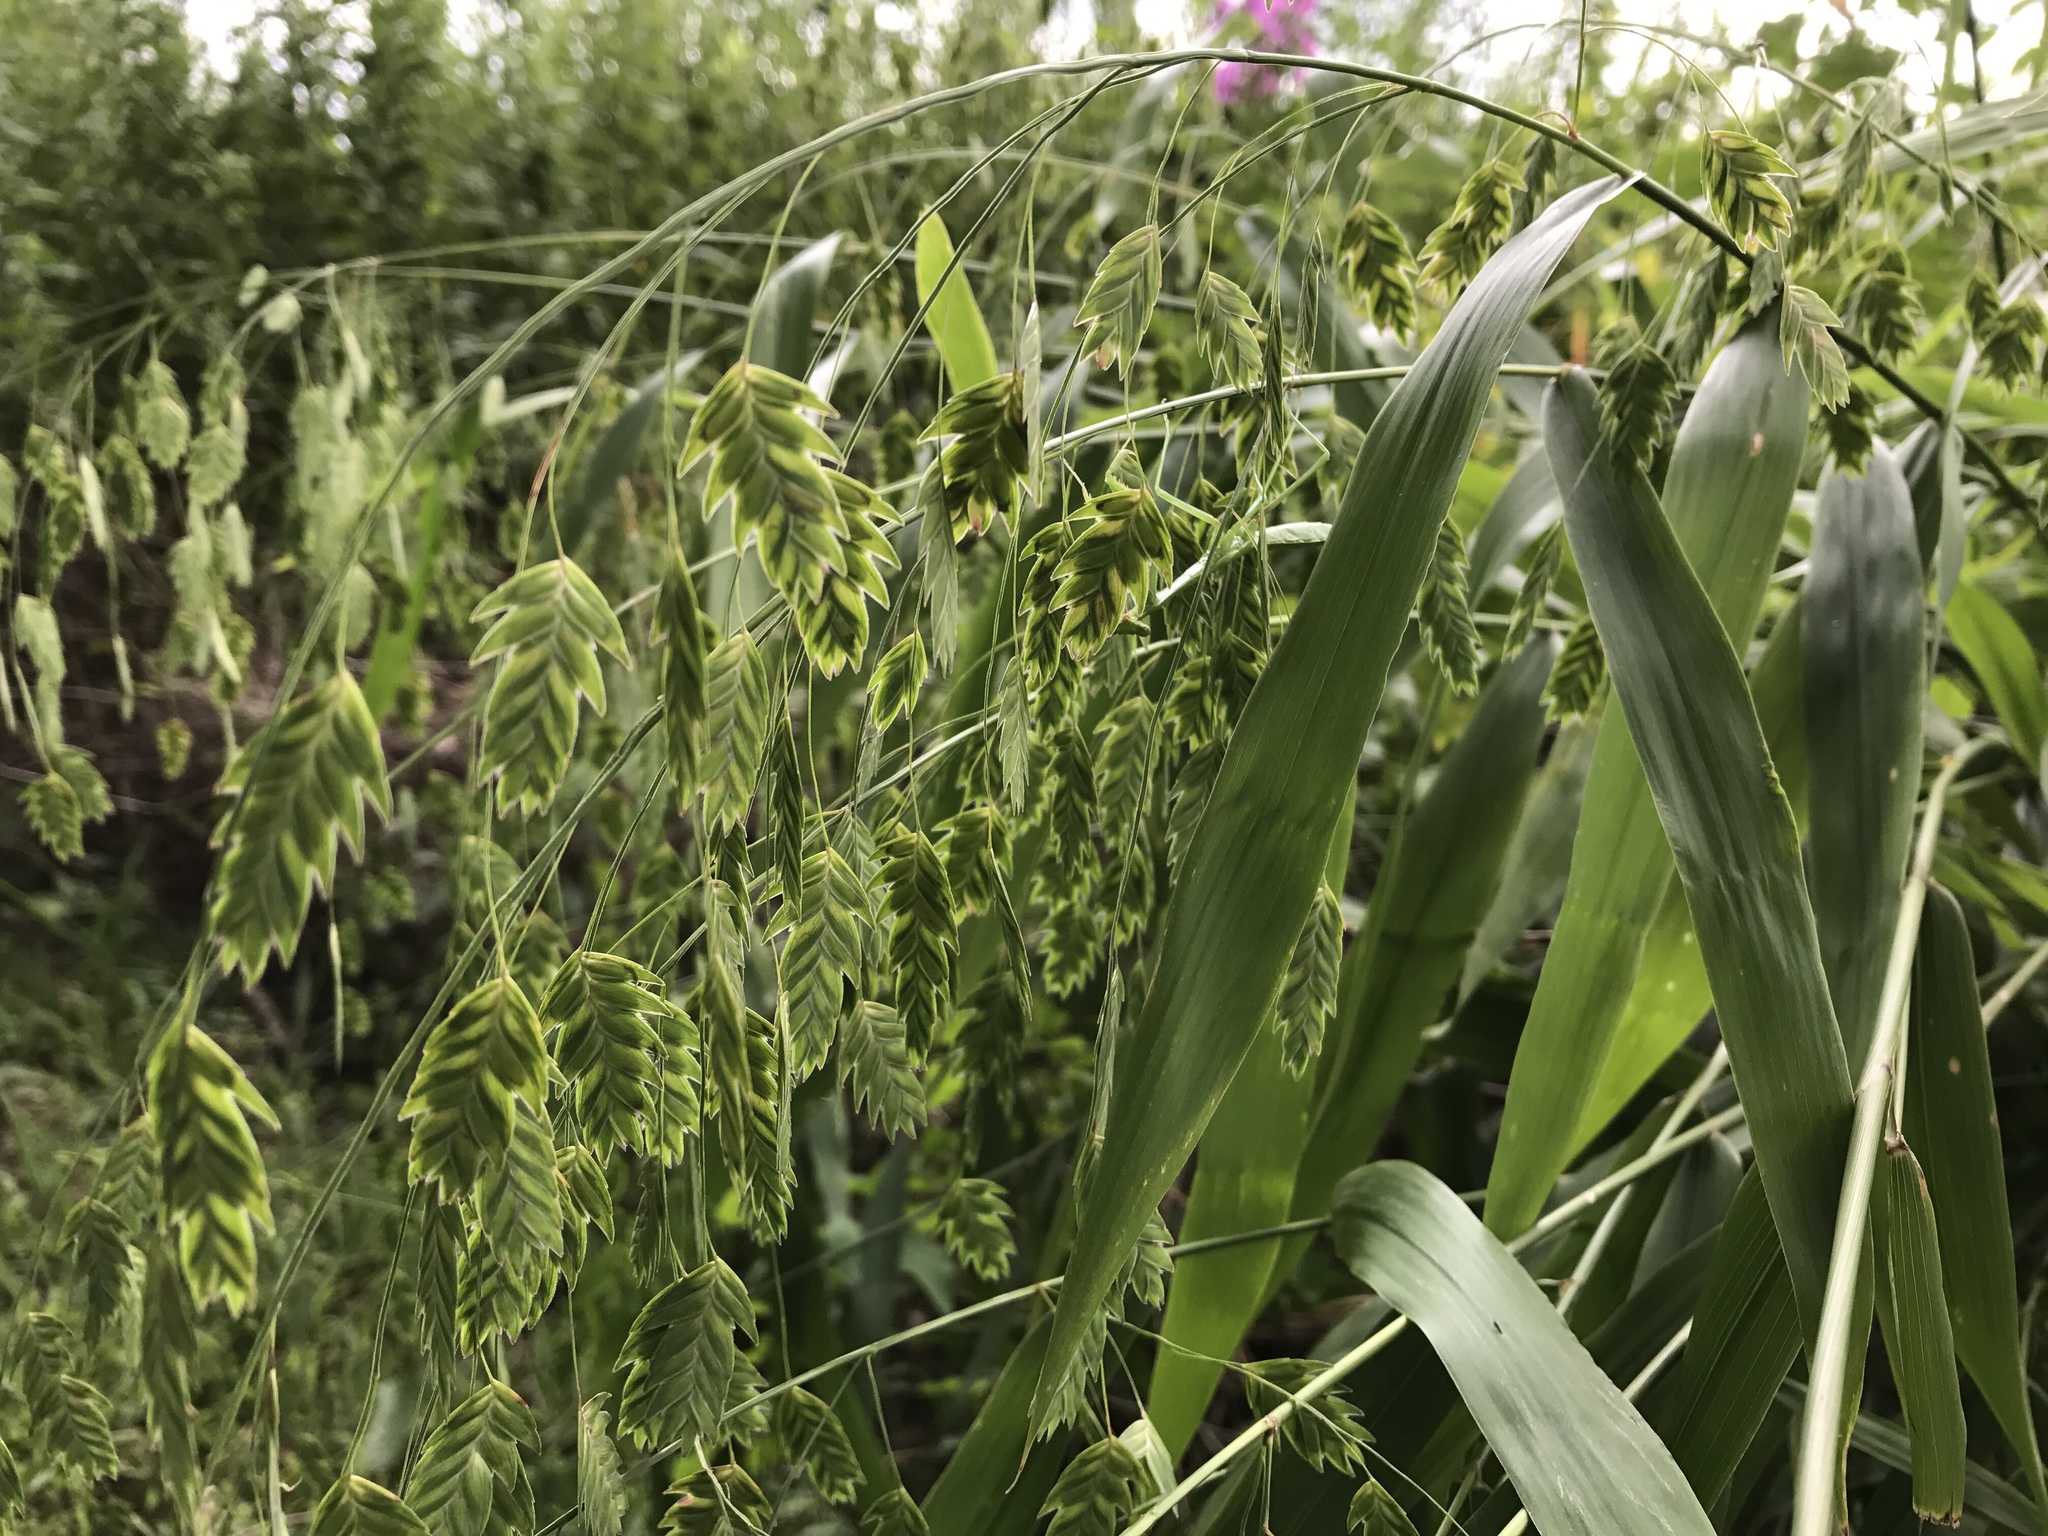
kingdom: Plantae
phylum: Tracheophyta
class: Liliopsida
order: Poales
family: Poaceae
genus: Chasmanthium
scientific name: Chasmanthium latifolium
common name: Broad-leaved chasmanthium
